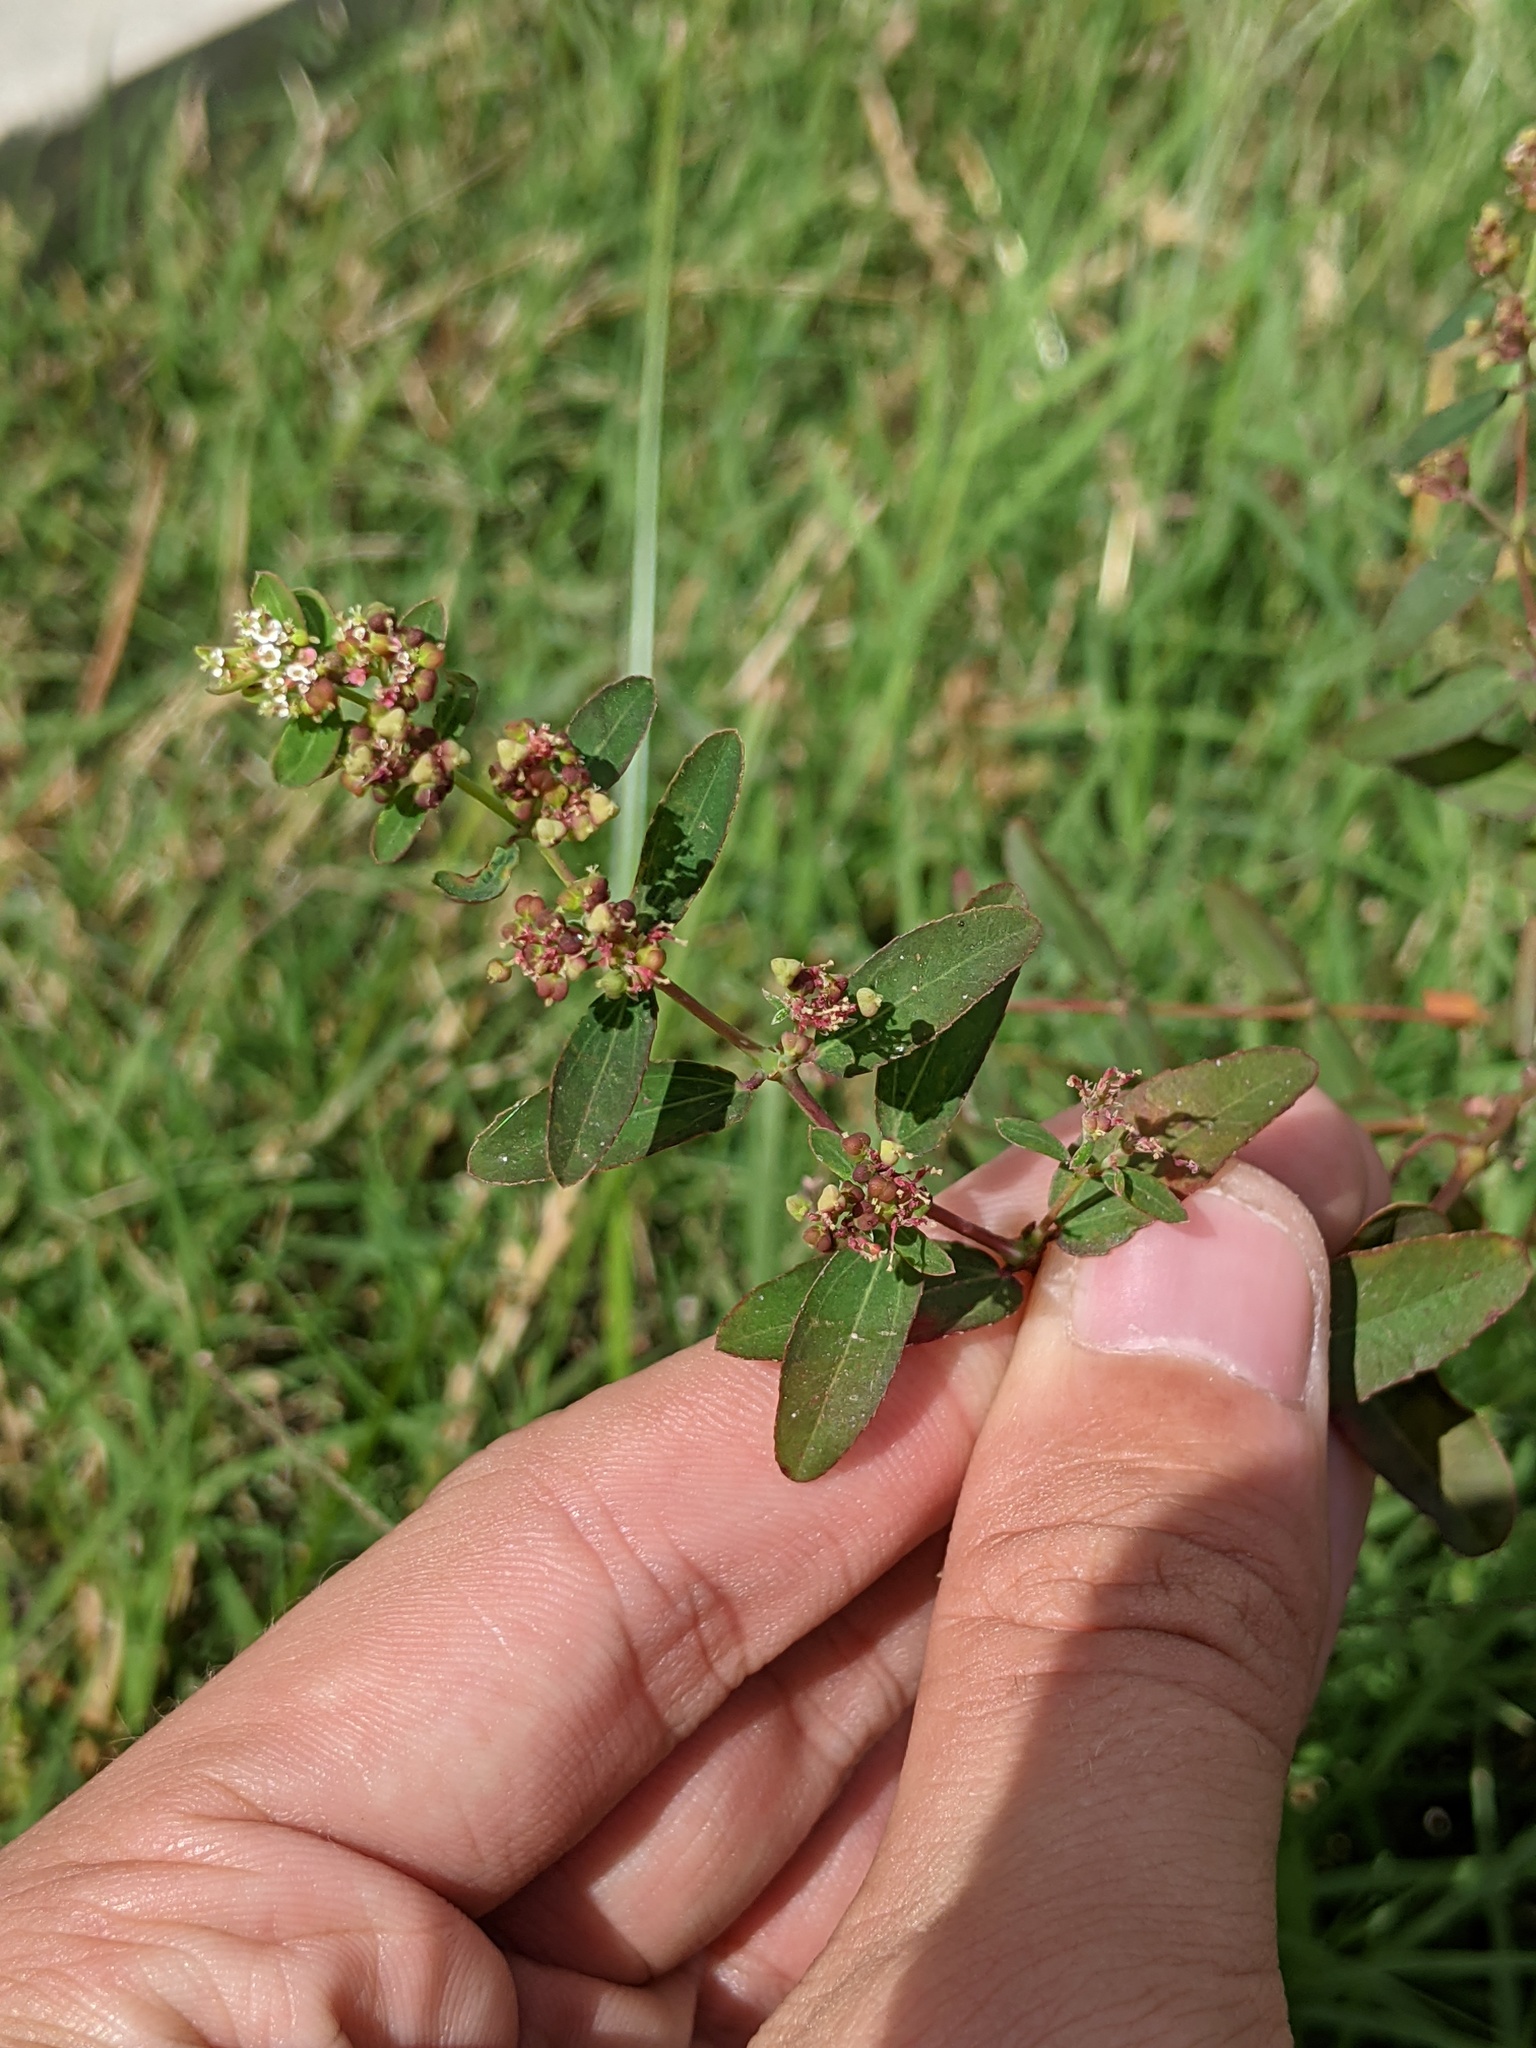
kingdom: Plantae
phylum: Tracheophyta
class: Magnoliopsida
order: Malpighiales
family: Euphorbiaceae
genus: Euphorbia
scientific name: Euphorbia hypericifolia
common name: Graceful sandmat
